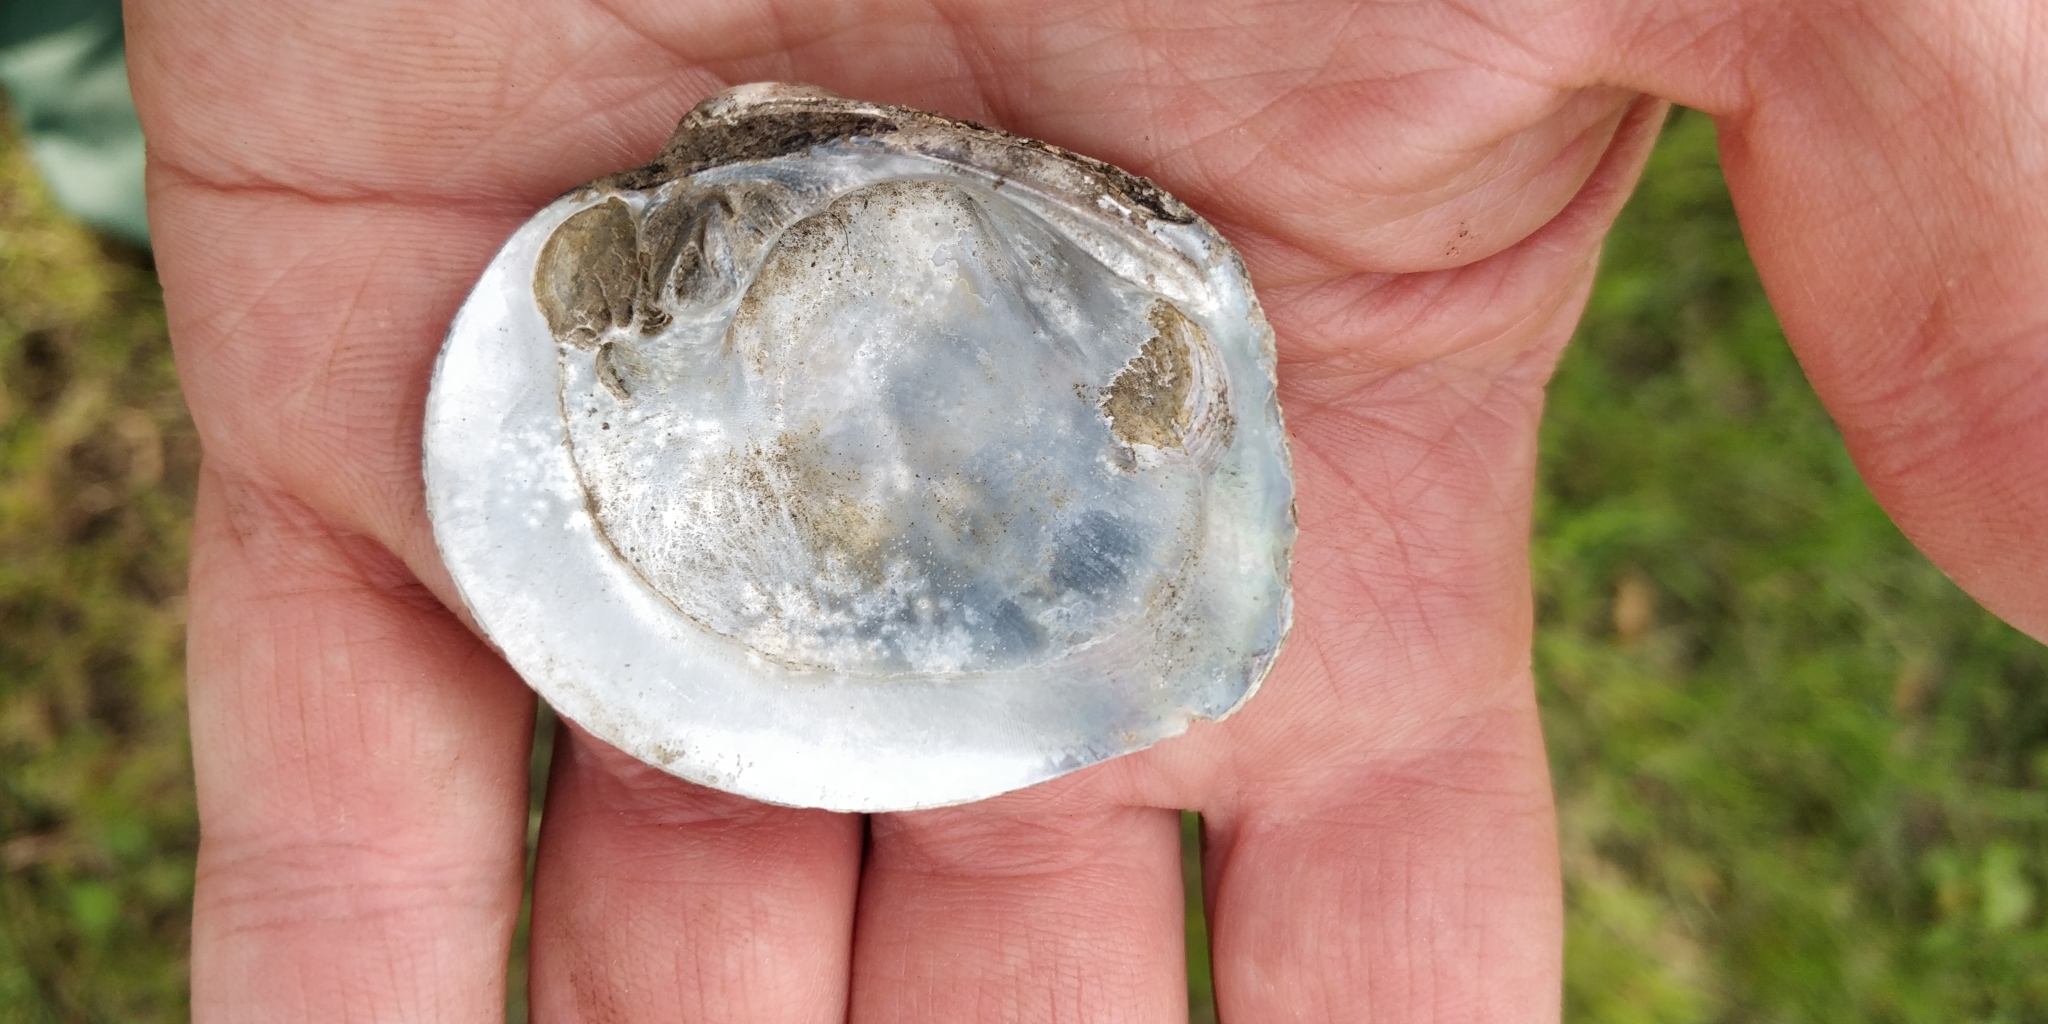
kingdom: Animalia
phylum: Mollusca
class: Bivalvia
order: Unionida
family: Unionidae
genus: Cyclonaias
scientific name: Cyclonaias pustulosa
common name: Pimpleback
